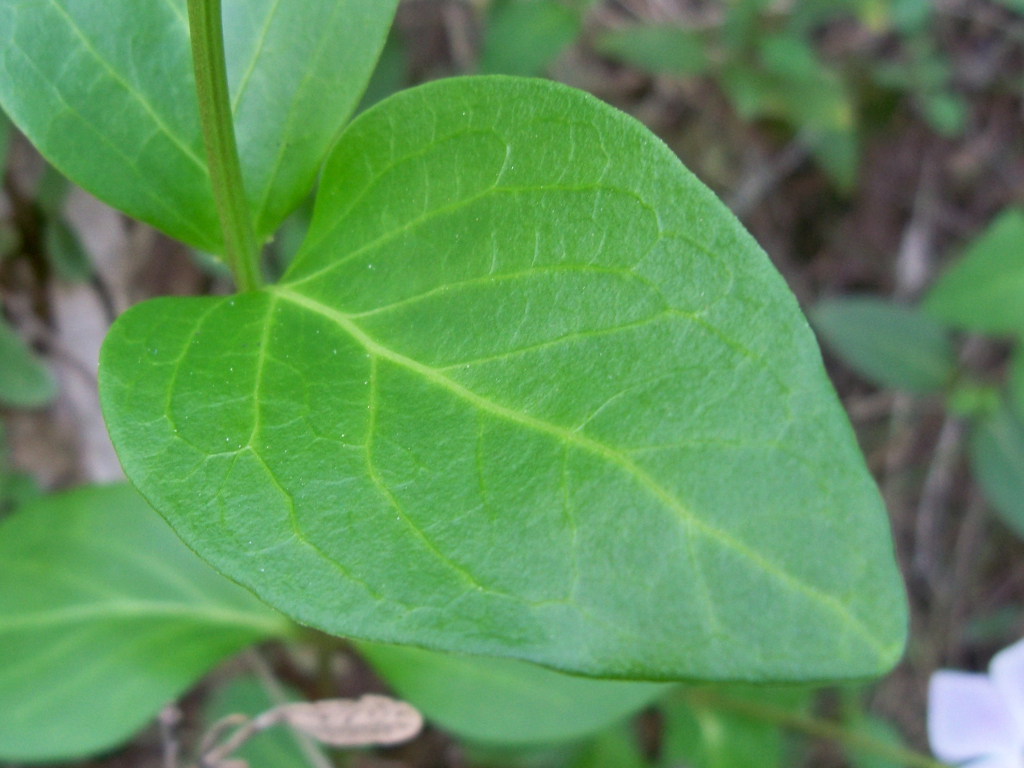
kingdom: Plantae
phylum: Tracheophyta
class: Magnoliopsida
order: Gentianales
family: Apocynaceae
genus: Vinca
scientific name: Vinca difformis
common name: Intermediate periwinkle
